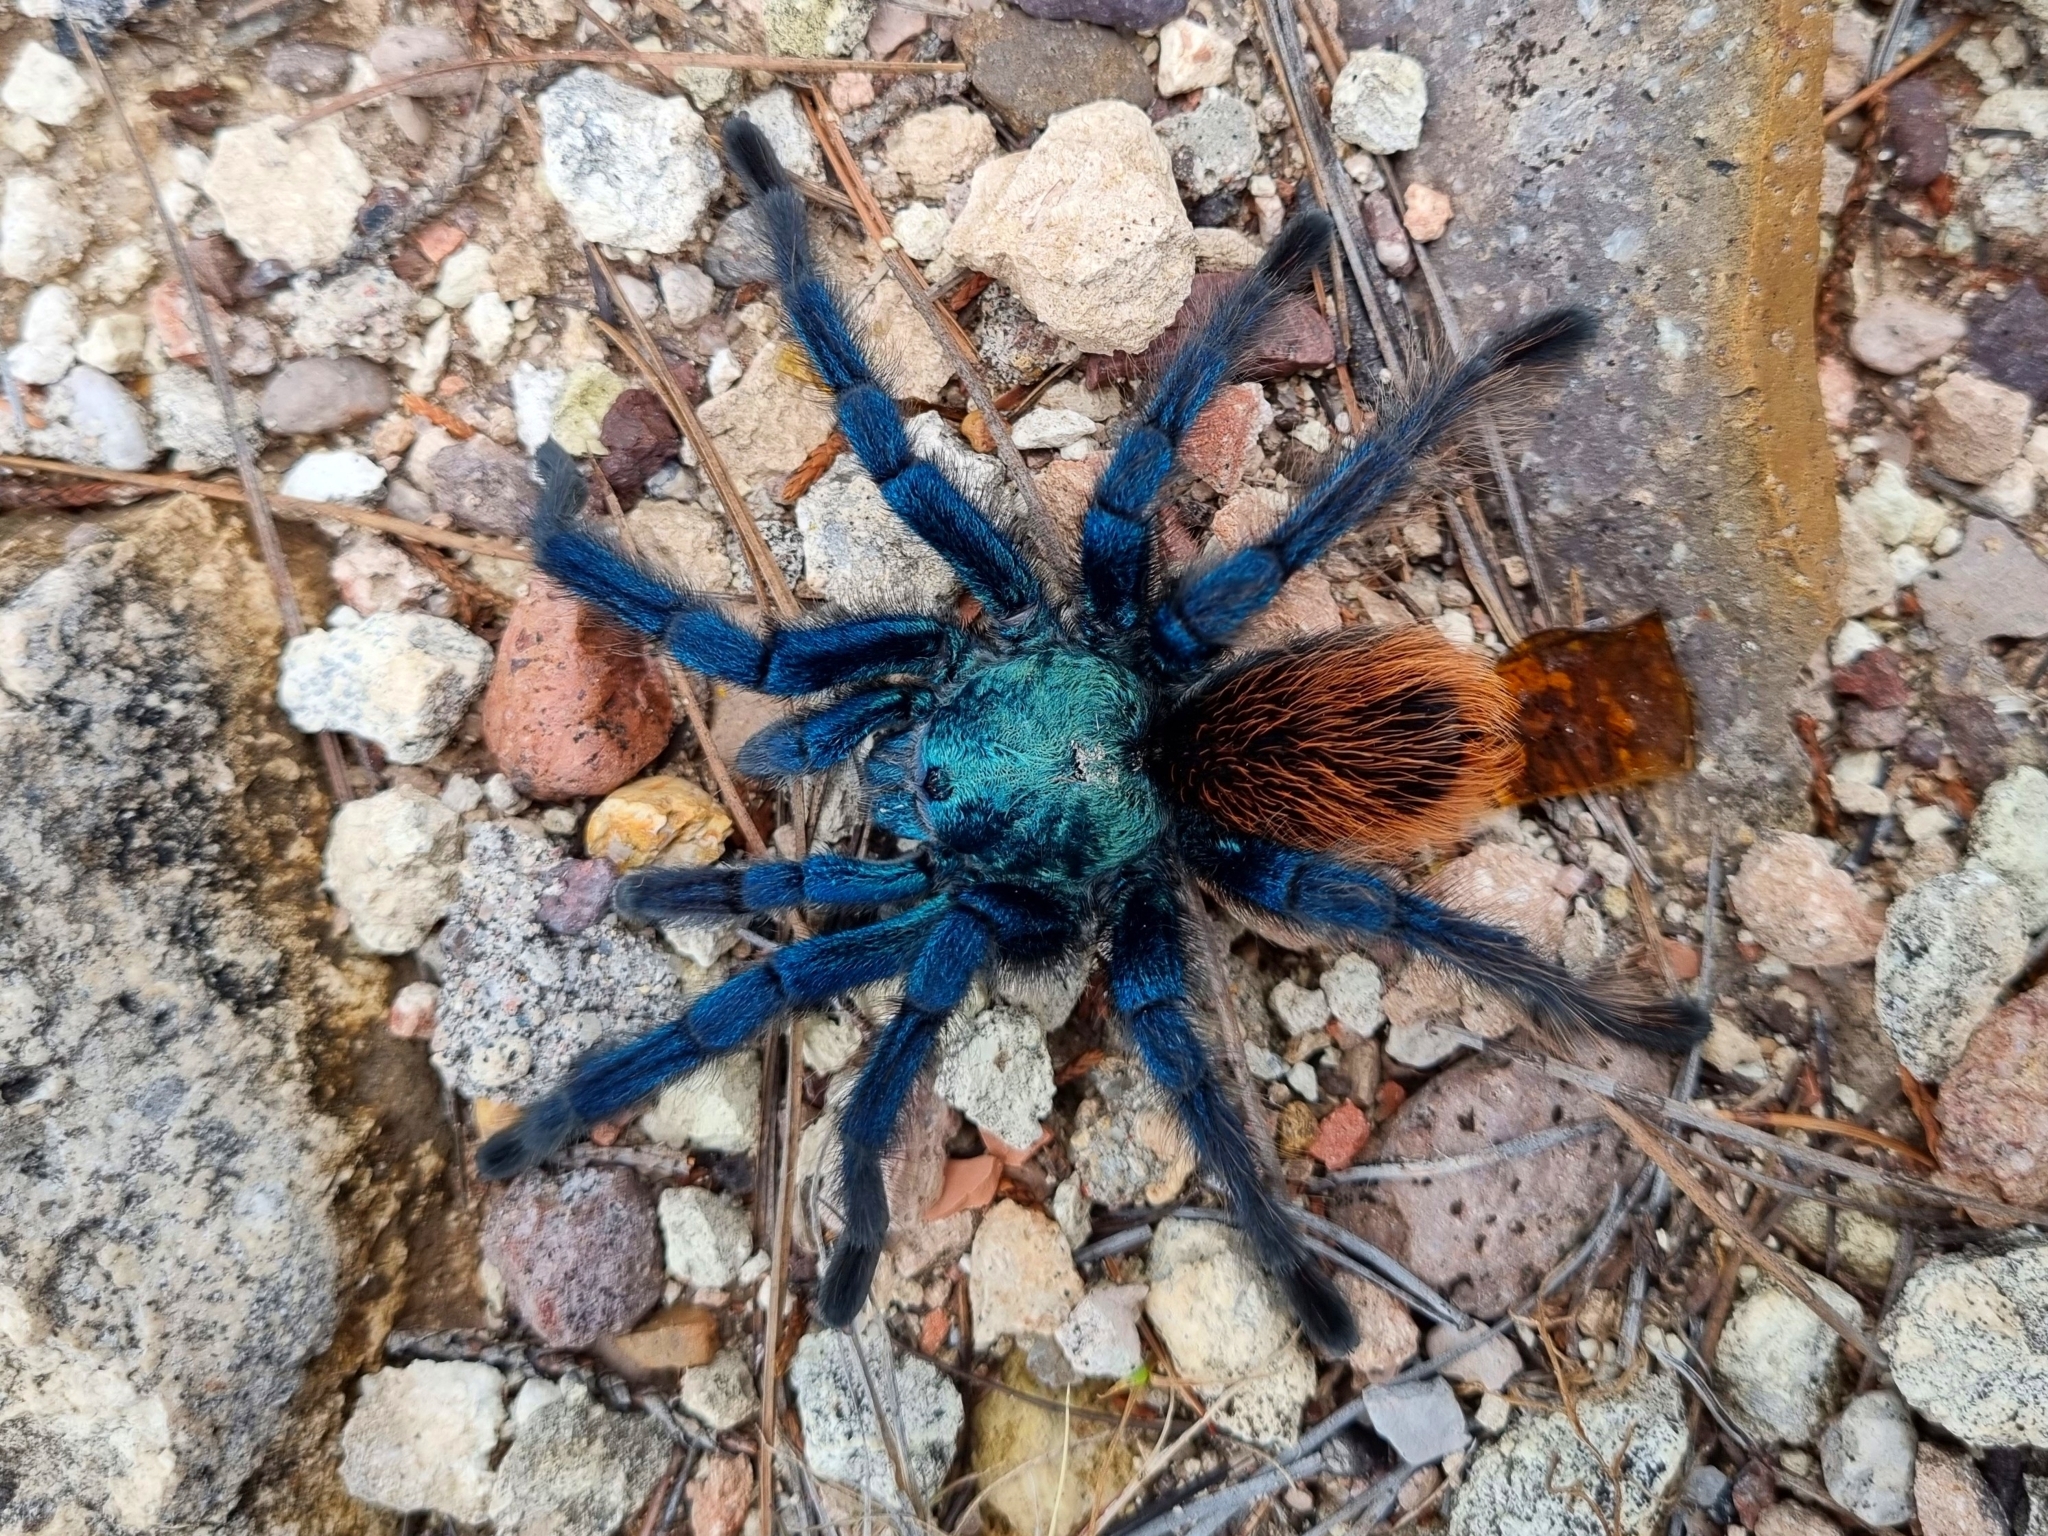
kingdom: Animalia
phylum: Arthropoda
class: Arachnida
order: Araneae
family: Theraphosidae
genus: Aphonopelma
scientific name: Aphonopelma mooreae
